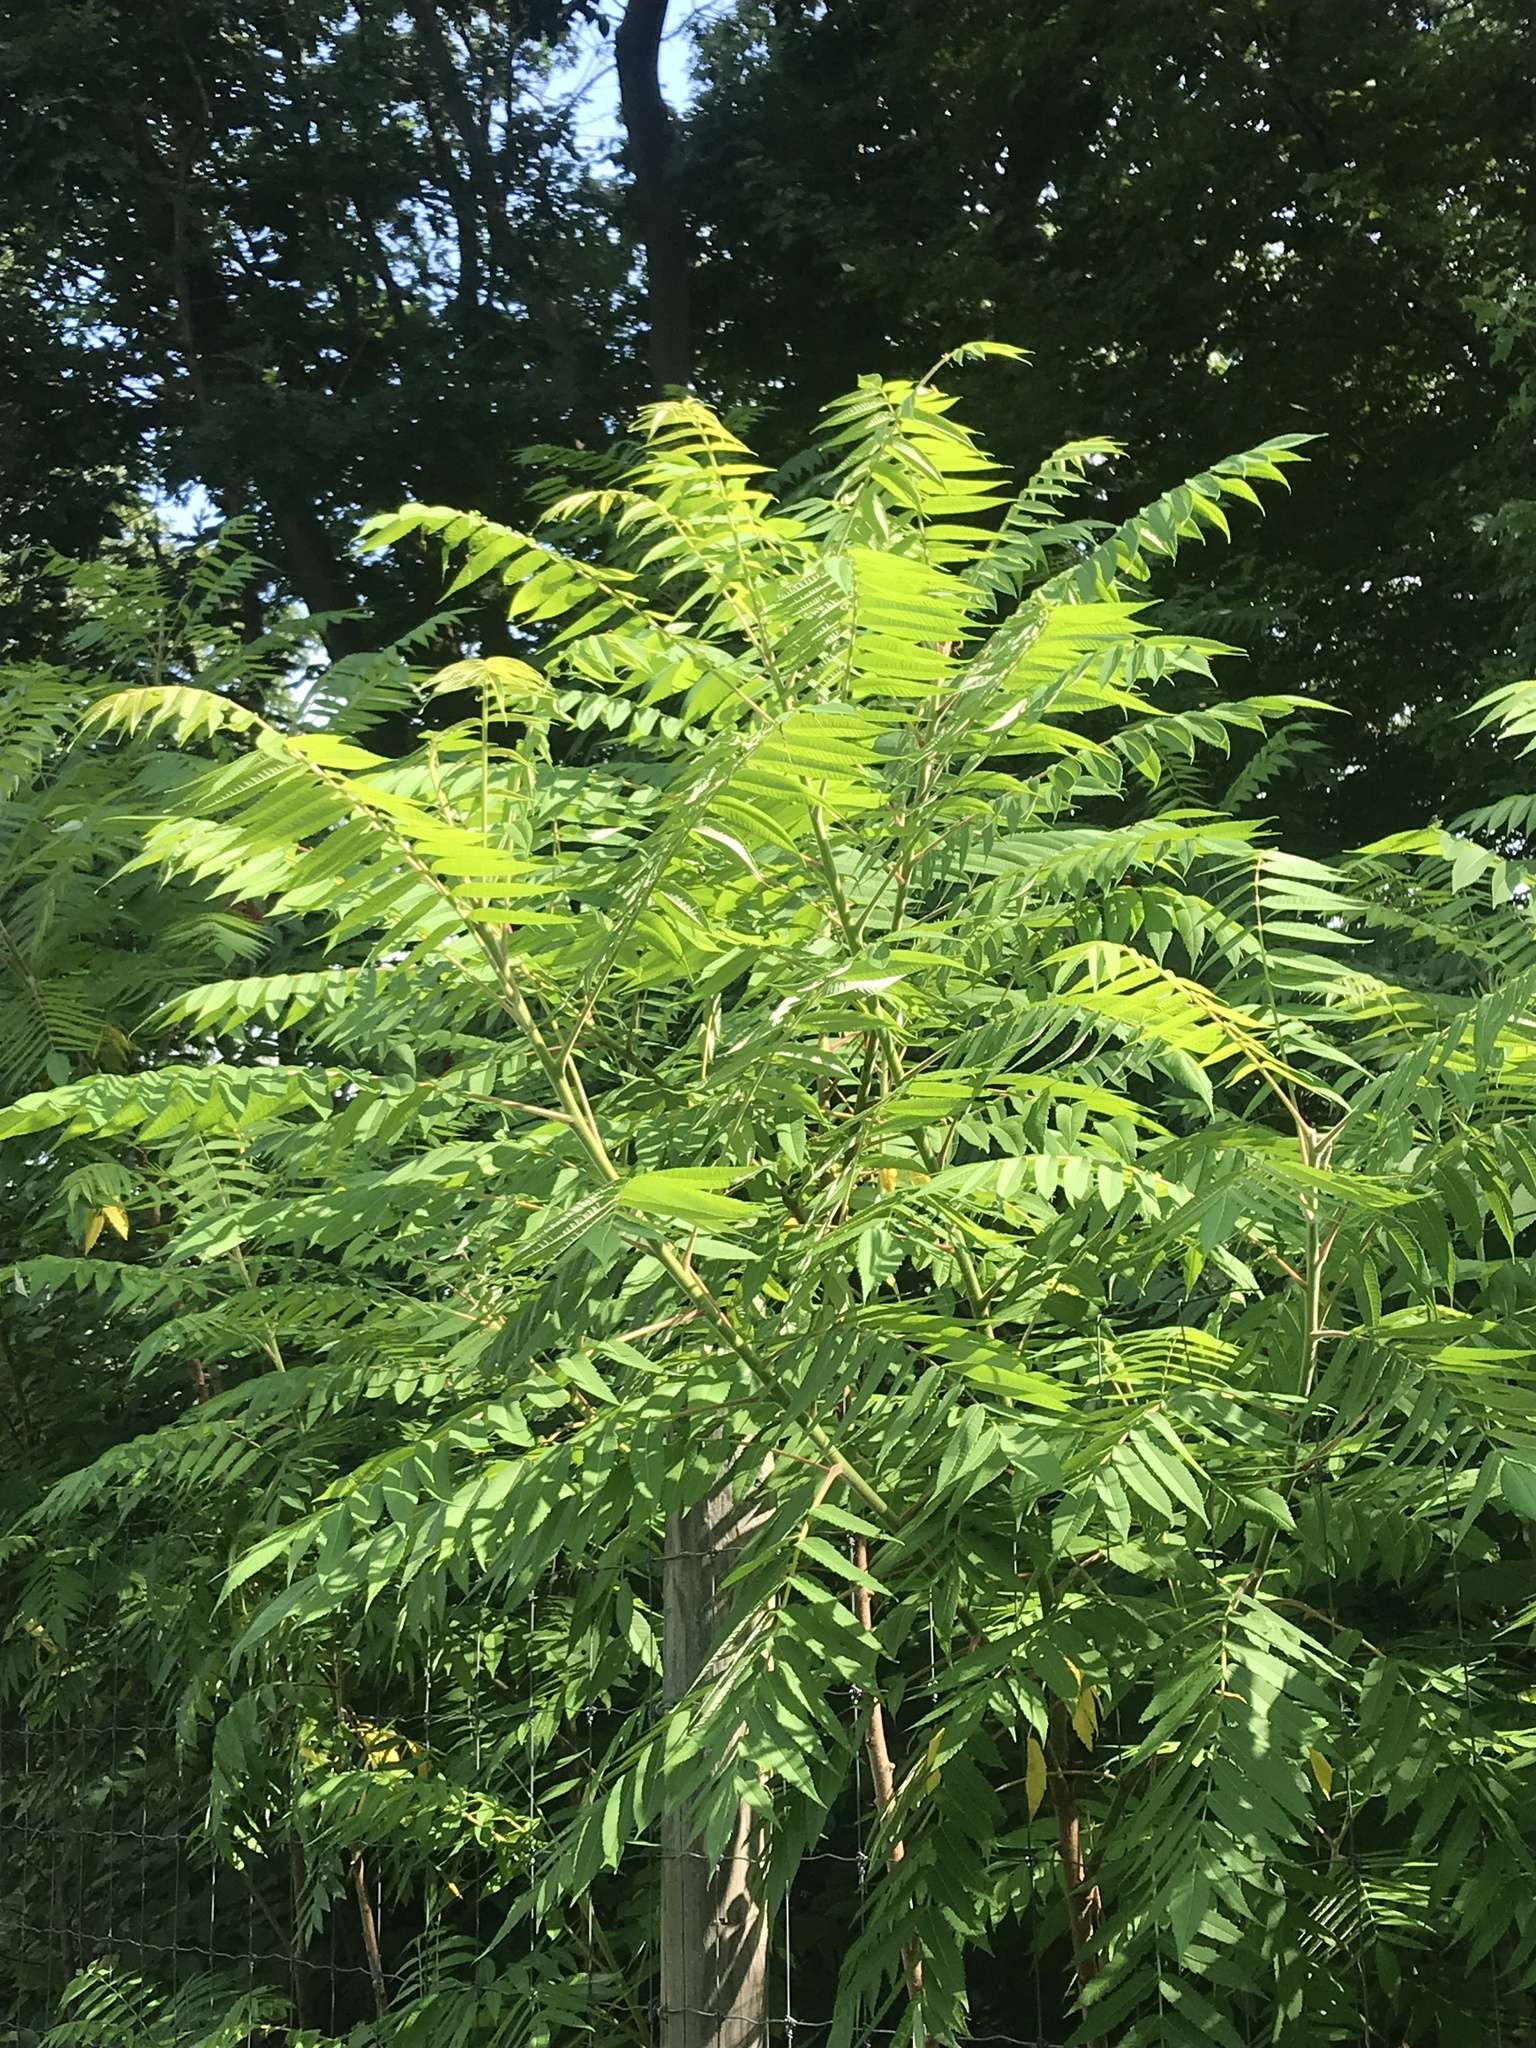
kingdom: Plantae
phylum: Tracheophyta
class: Magnoliopsida
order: Sapindales
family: Anacardiaceae
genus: Rhus
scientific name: Rhus typhina
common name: Staghorn sumac
